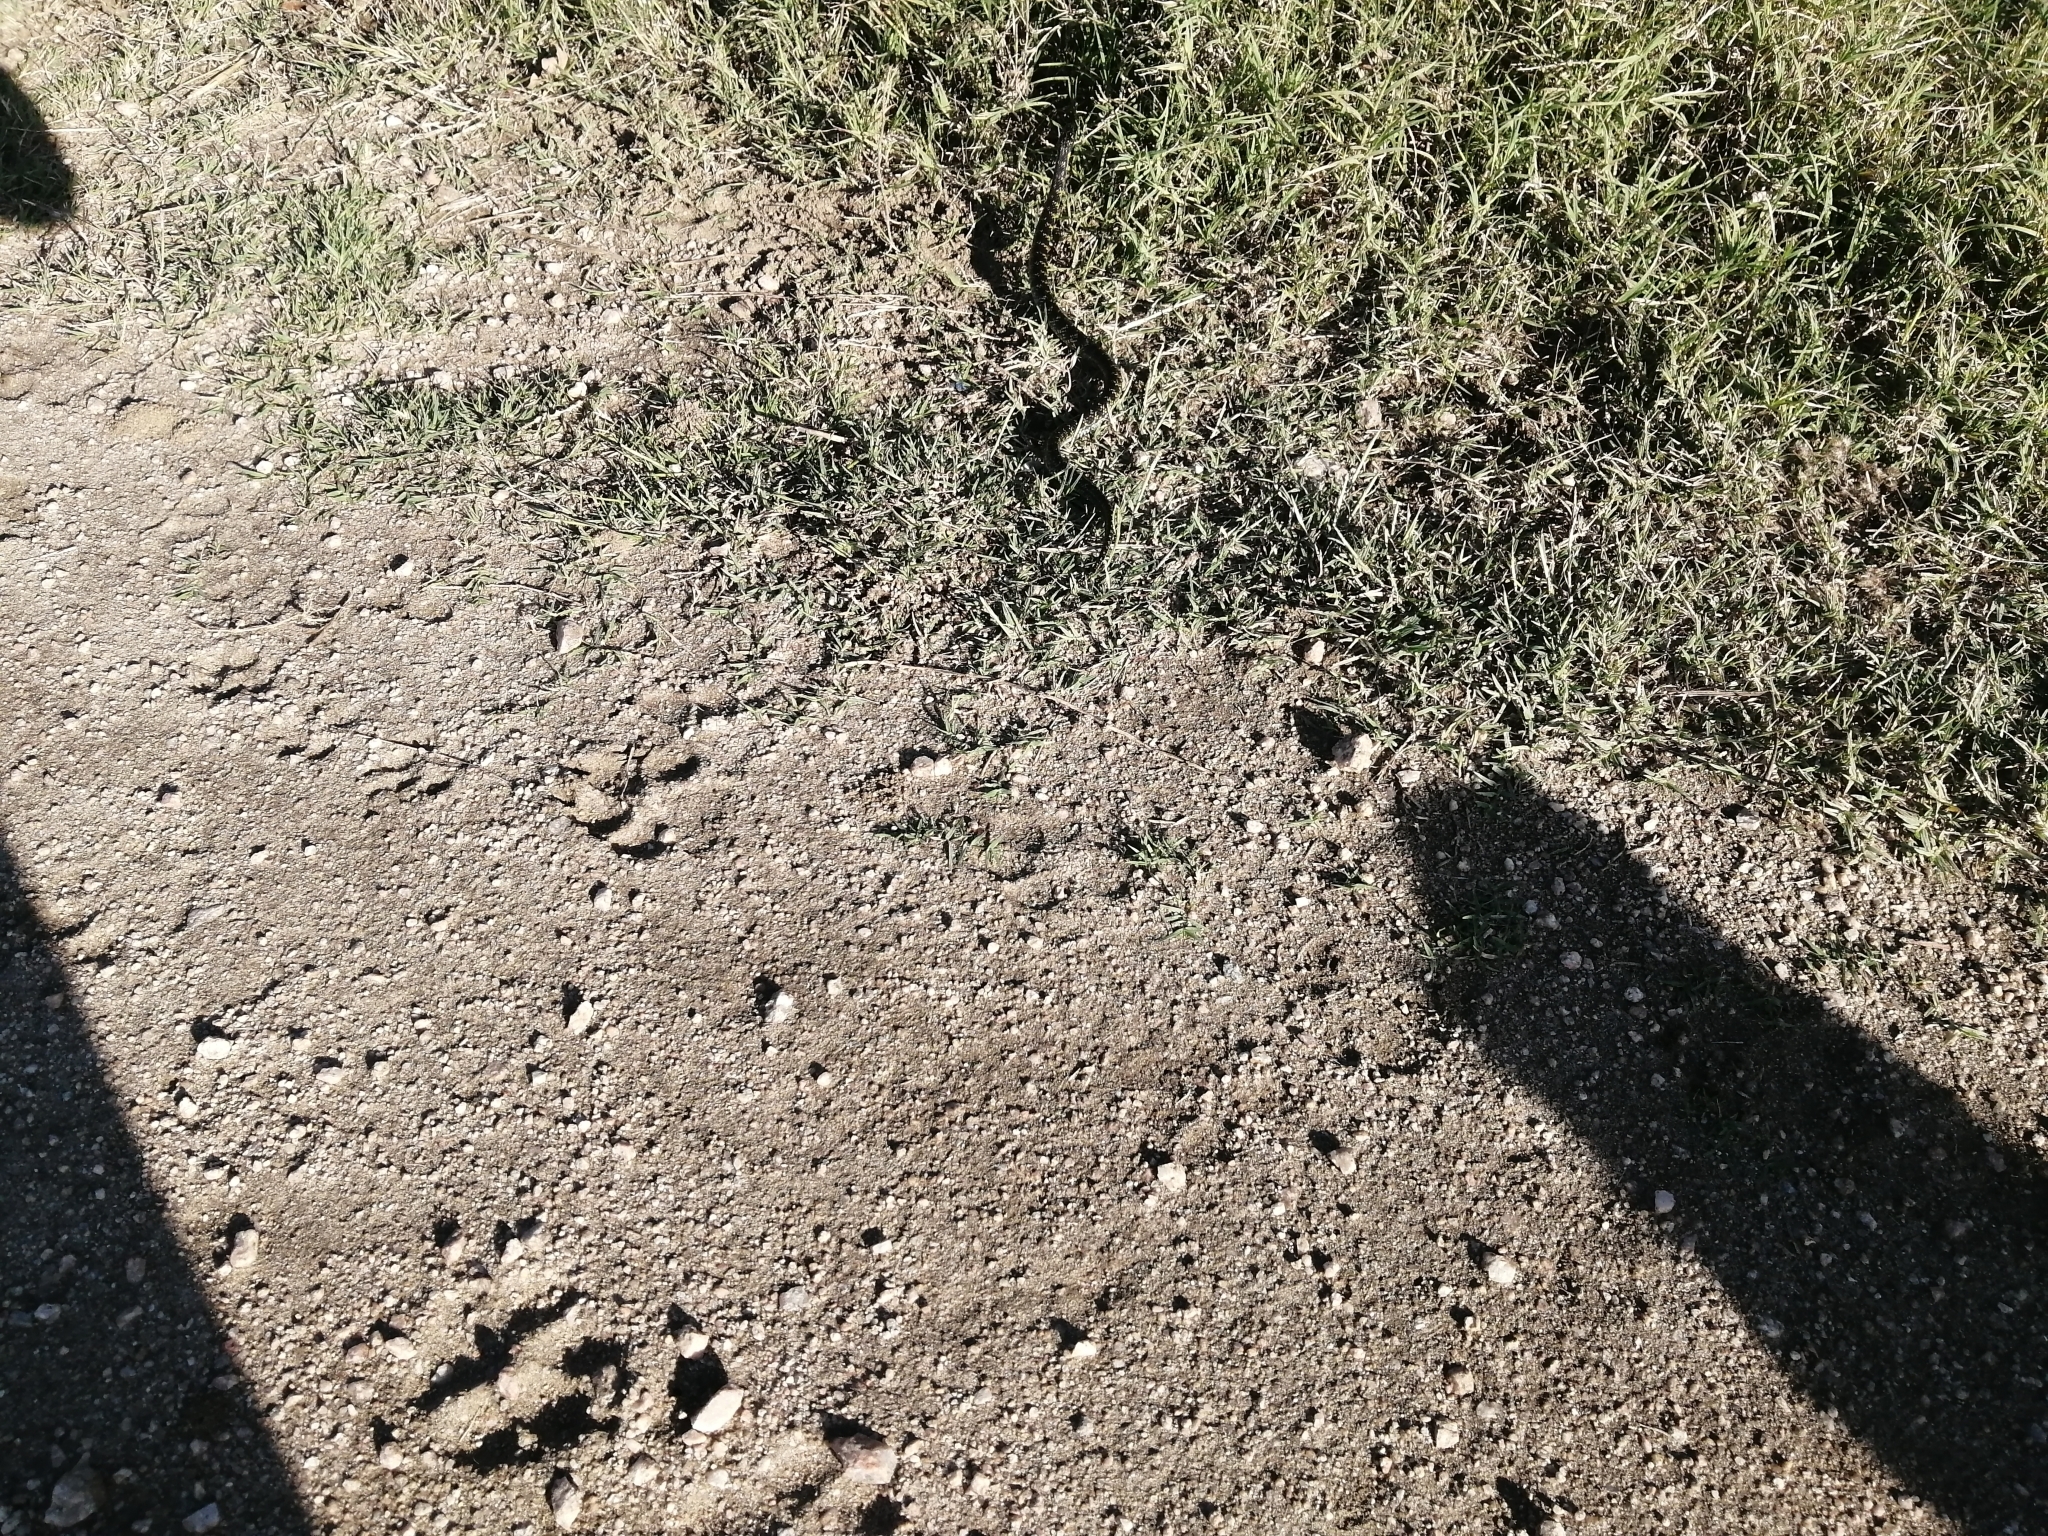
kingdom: Animalia
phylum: Chordata
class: Squamata
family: Colubridae
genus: Erythrolamprus
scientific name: Erythrolamprus poecilogyrus
